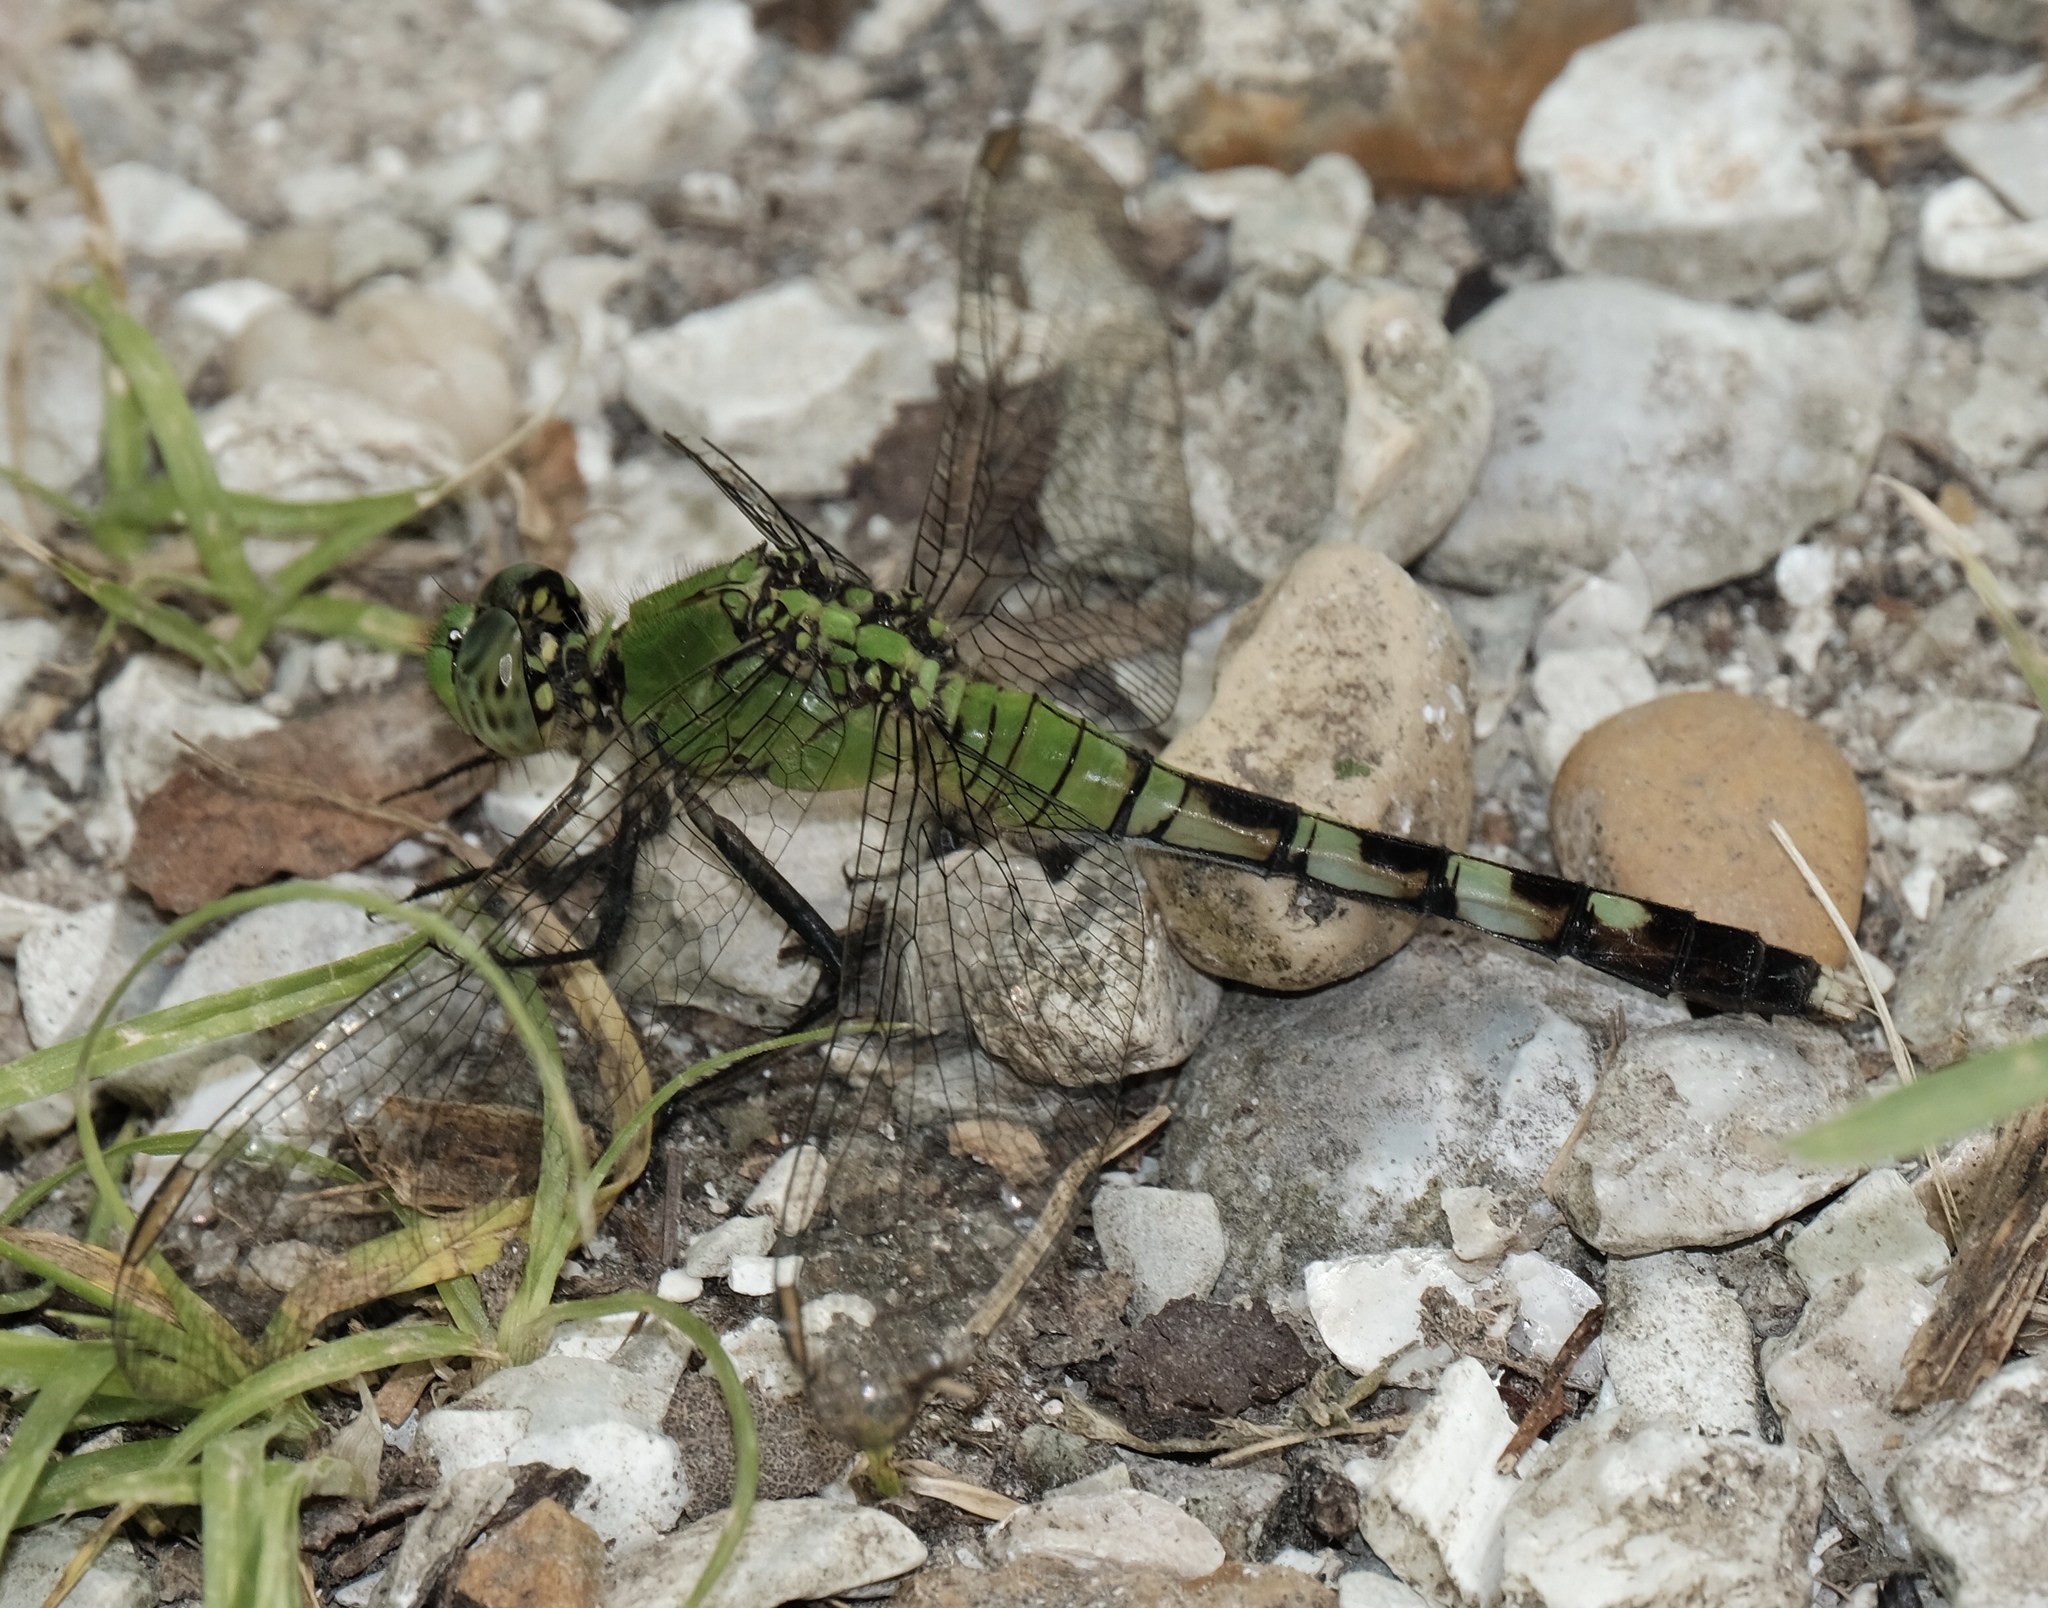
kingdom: Animalia
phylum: Arthropoda
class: Insecta
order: Odonata
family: Libellulidae
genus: Erythemis
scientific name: Erythemis simplicicollis
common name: Eastern pondhawk
